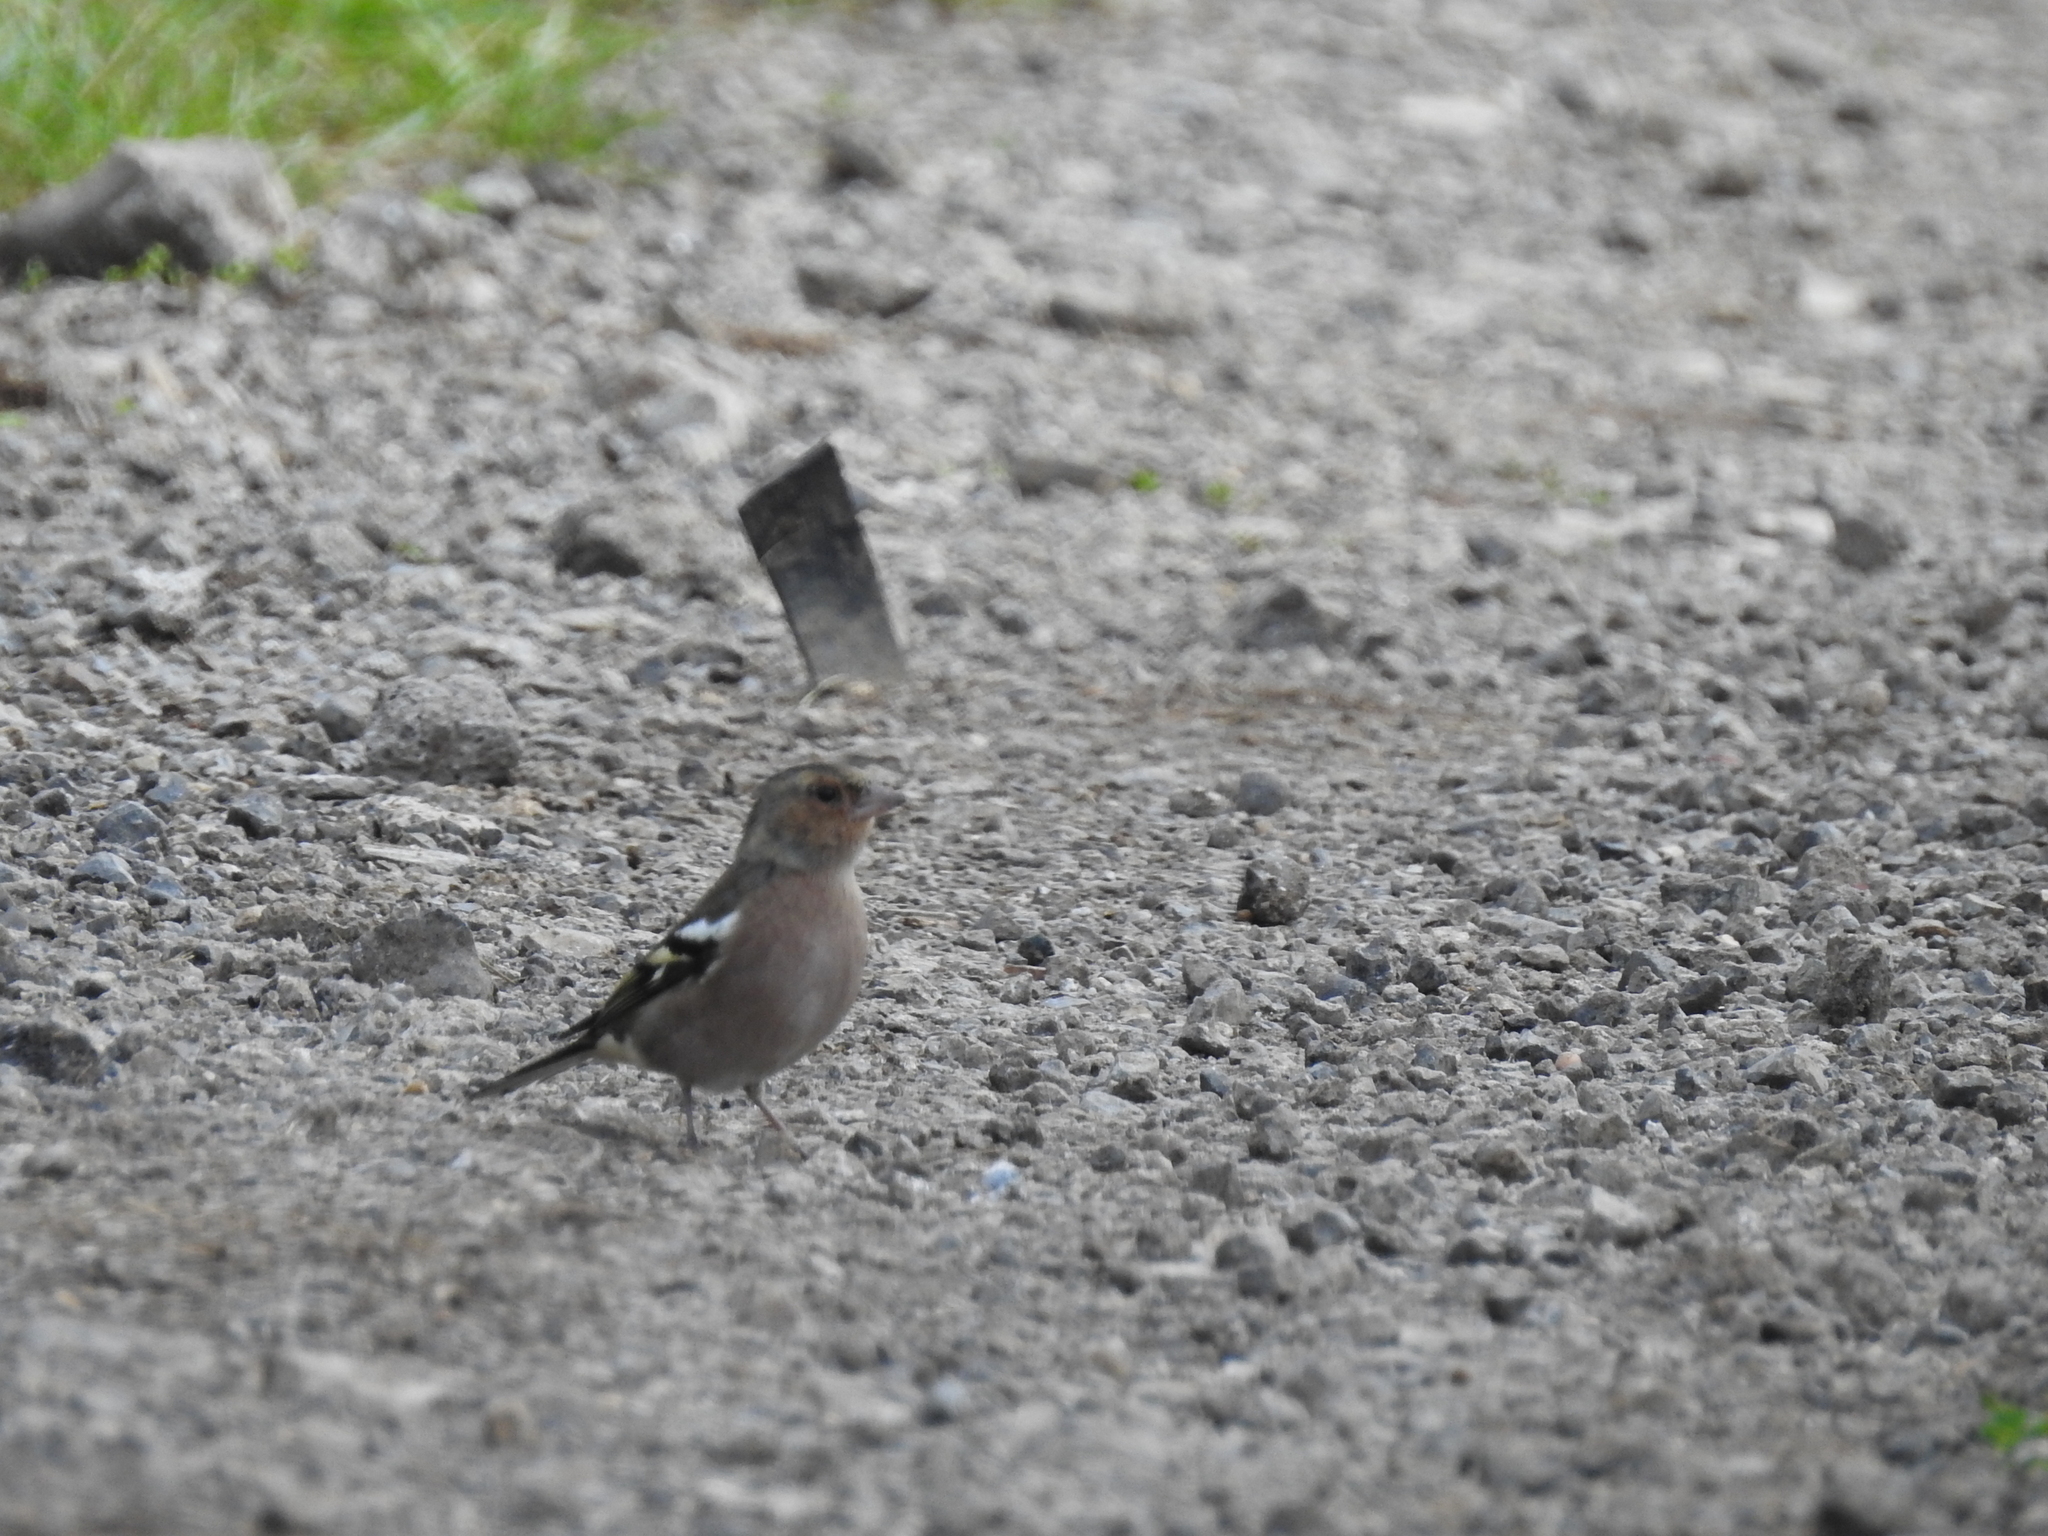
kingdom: Animalia
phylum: Chordata
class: Aves
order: Passeriformes
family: Fringillidae
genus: Fringilla
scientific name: Fringilla coelebs
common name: Common chaffinch
